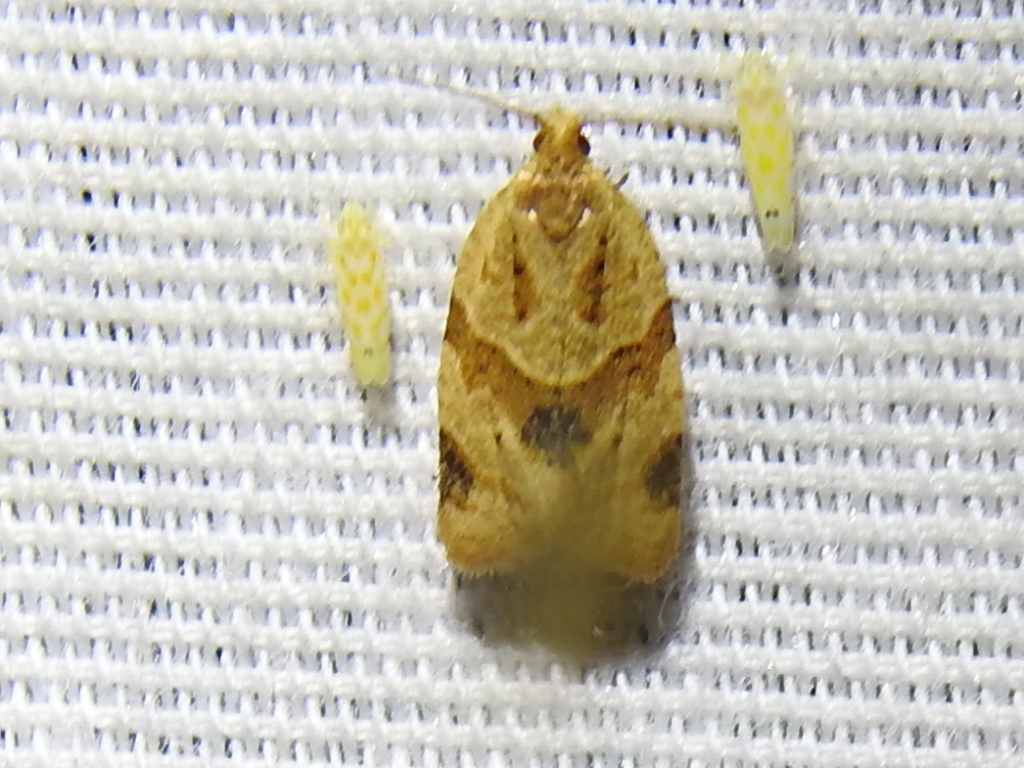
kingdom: Animalia
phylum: Arthropoda
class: Insecta
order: Lepidoptera
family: Tortricidae
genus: Clepsis
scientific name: Clepsis peritana
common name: Garden tortrix
